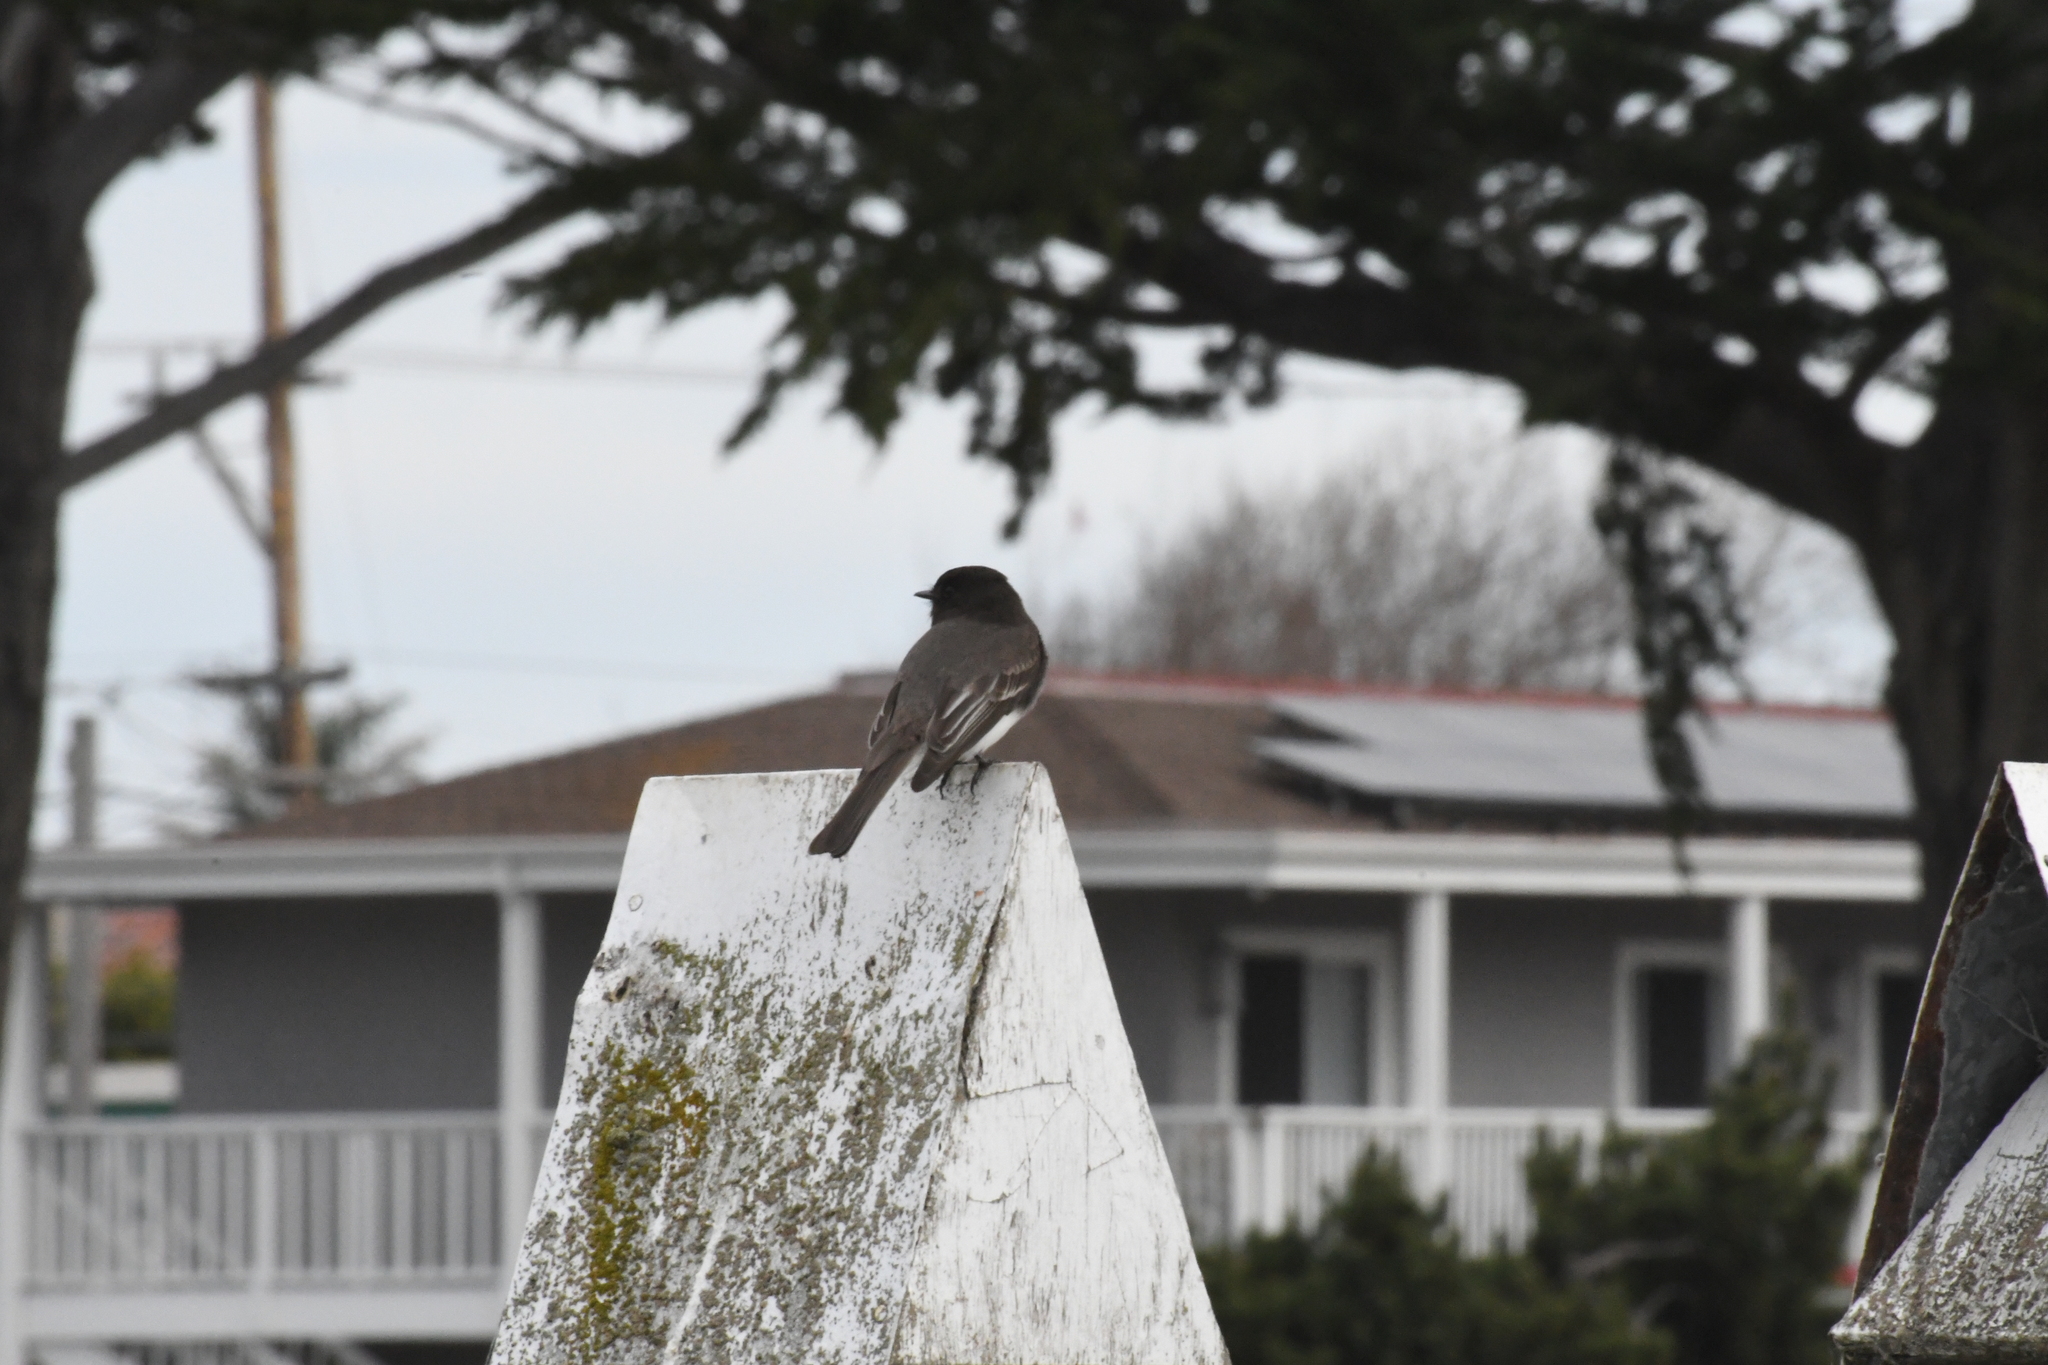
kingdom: Animalia
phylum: Chordata
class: Aves
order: Passeriformes
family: Tyrannidae
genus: Sayornis
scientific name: Sayornis nigricans
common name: Black phoebe
